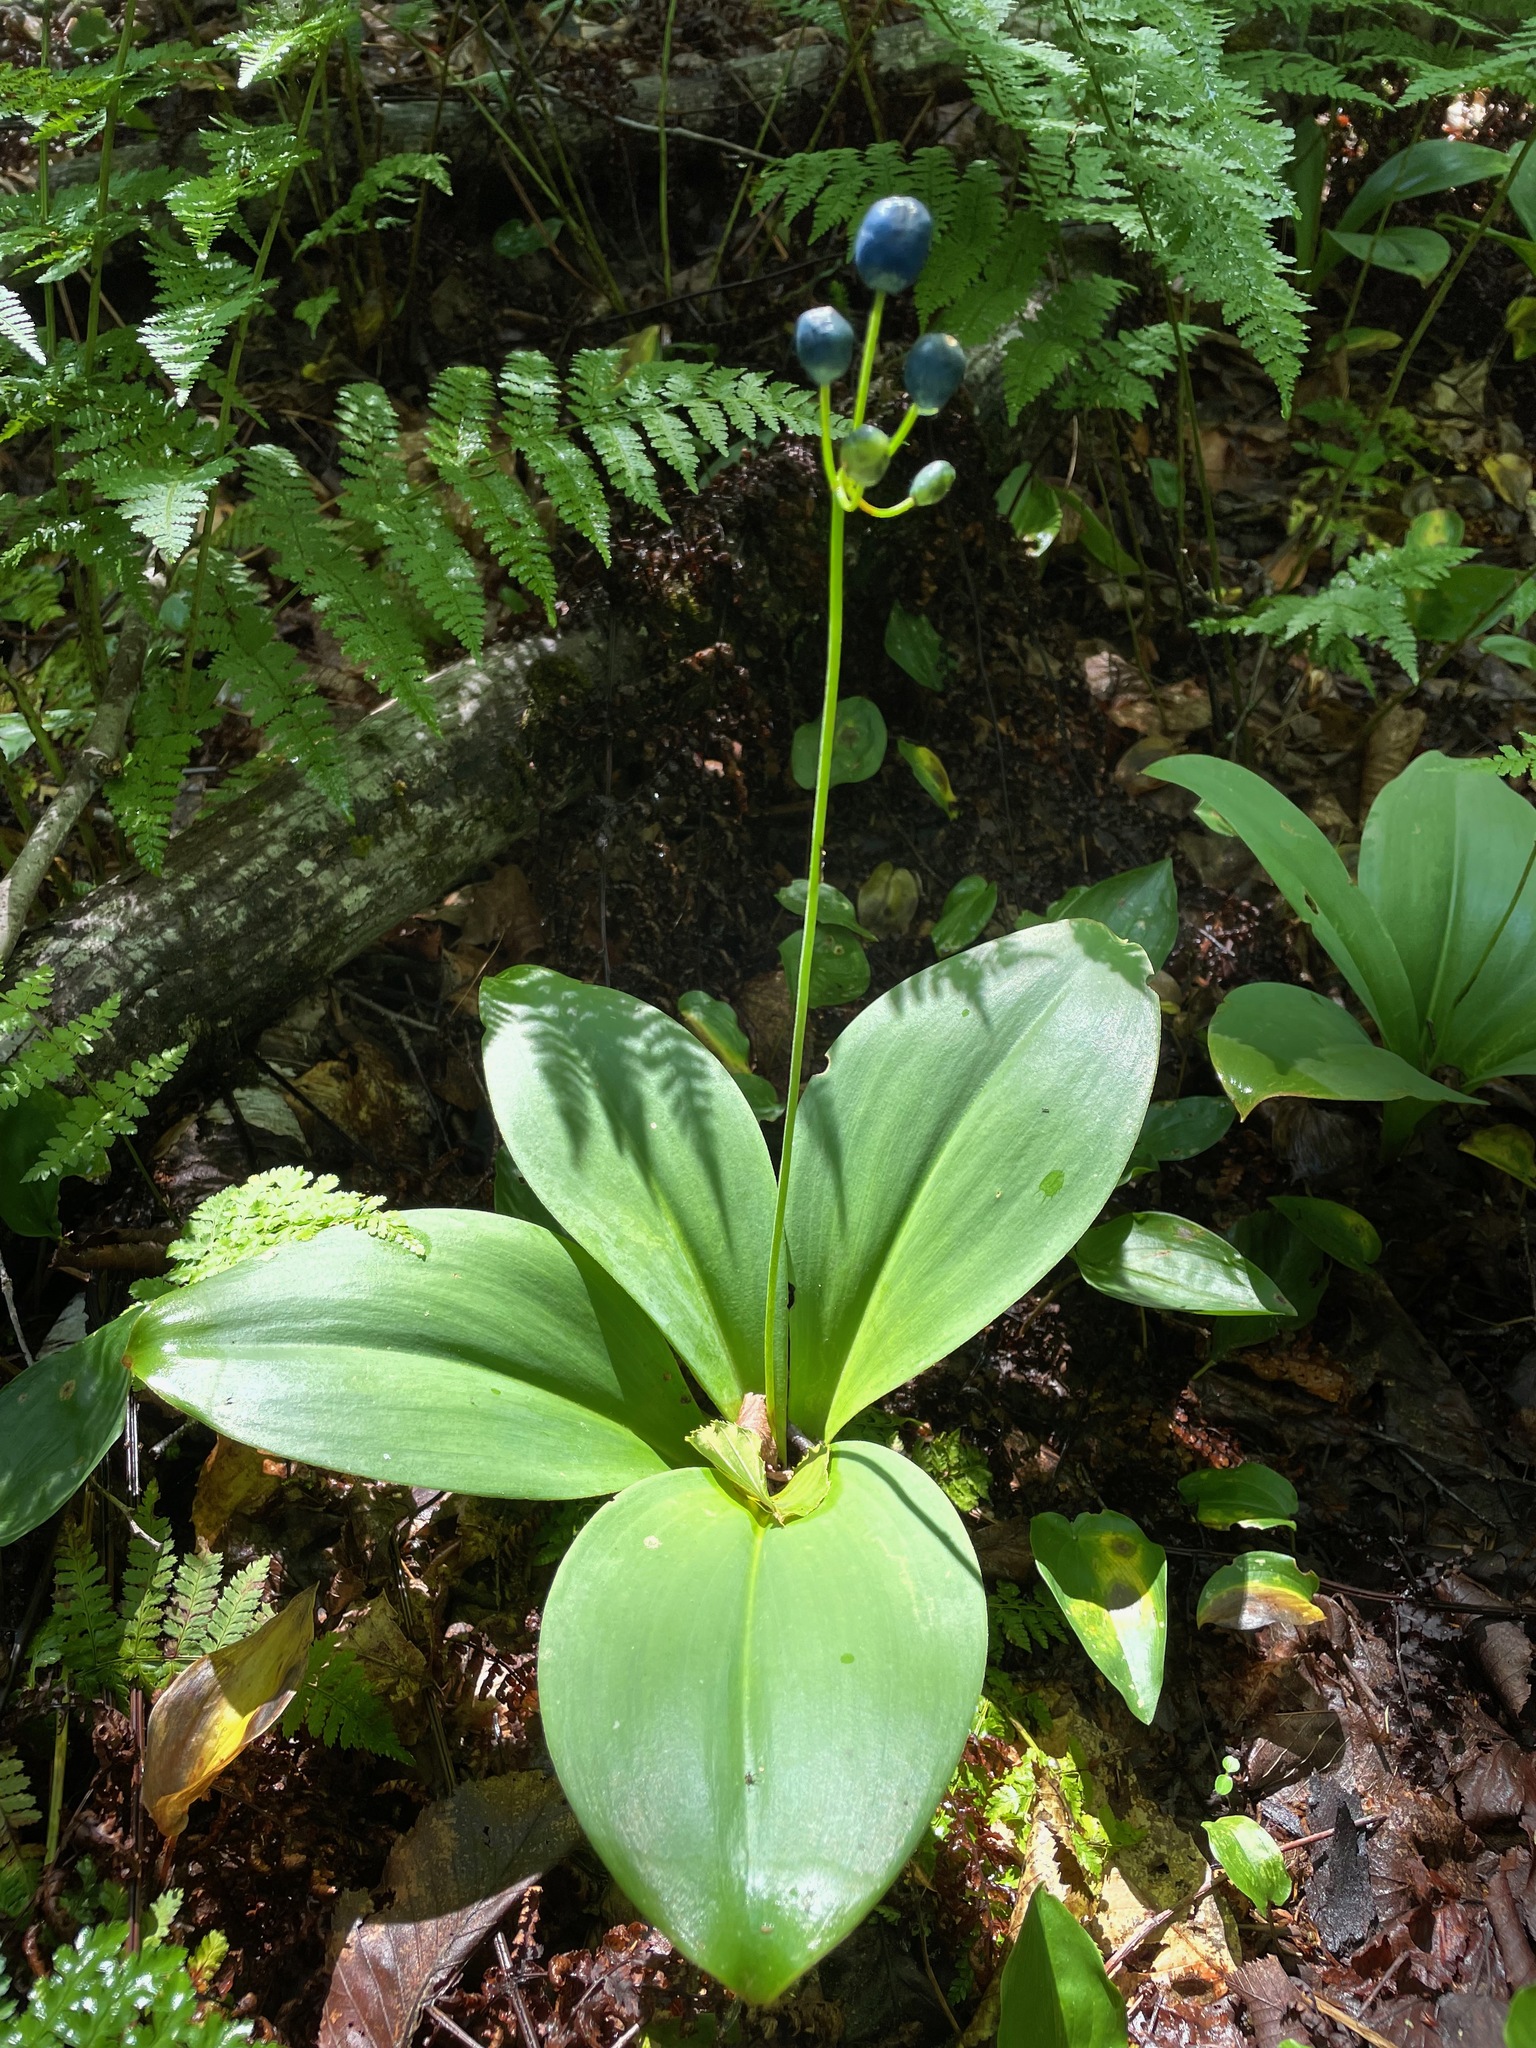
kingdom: Plantae
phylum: Tracheophyta
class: Liliopsida
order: Liliales
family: Liliaceae
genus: Clintonia
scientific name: Clintonia borealis
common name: Yellow clintonia
